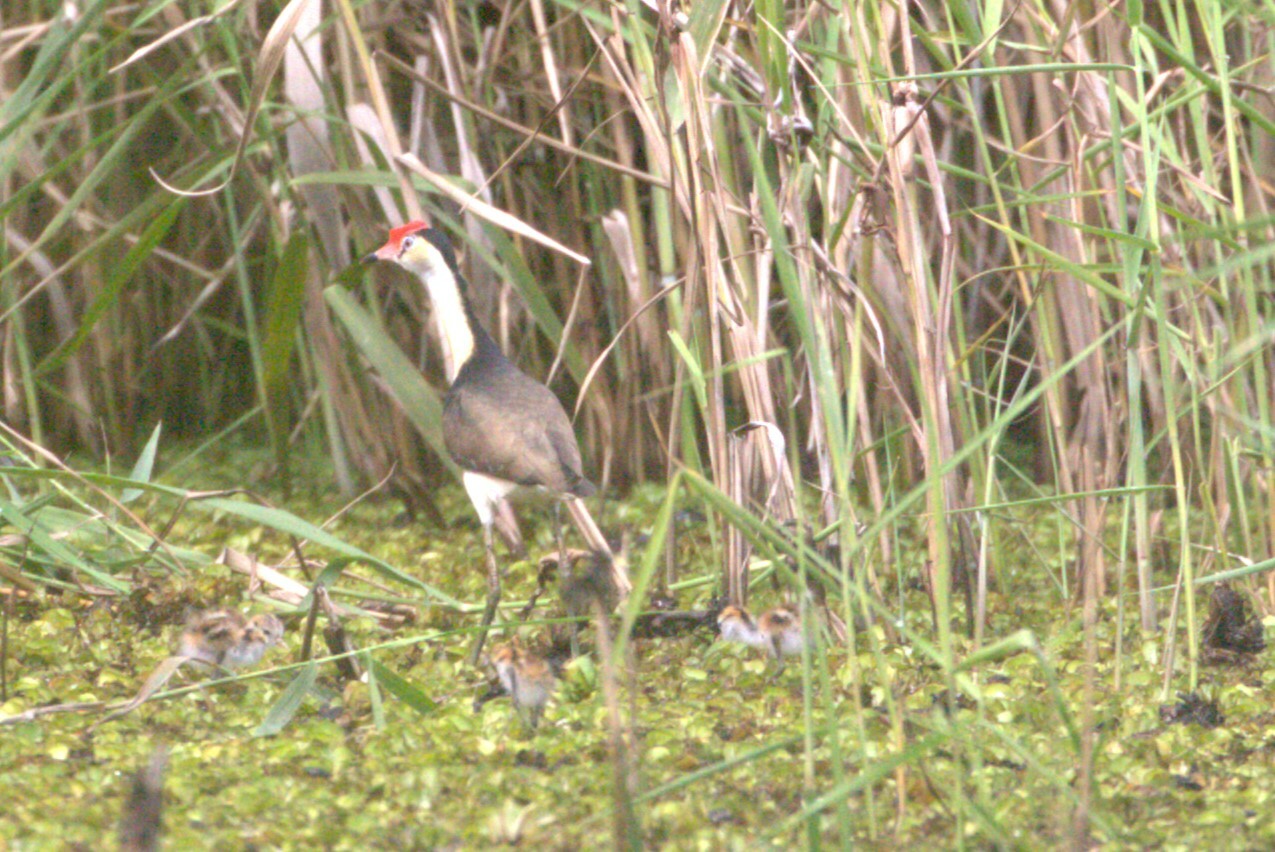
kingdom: Animalia
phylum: Chordata
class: Aves
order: Charadriiformes
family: Jacanidae
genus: Irediparra
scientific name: Irediparra gallinacea
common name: Comb-crested jacana
